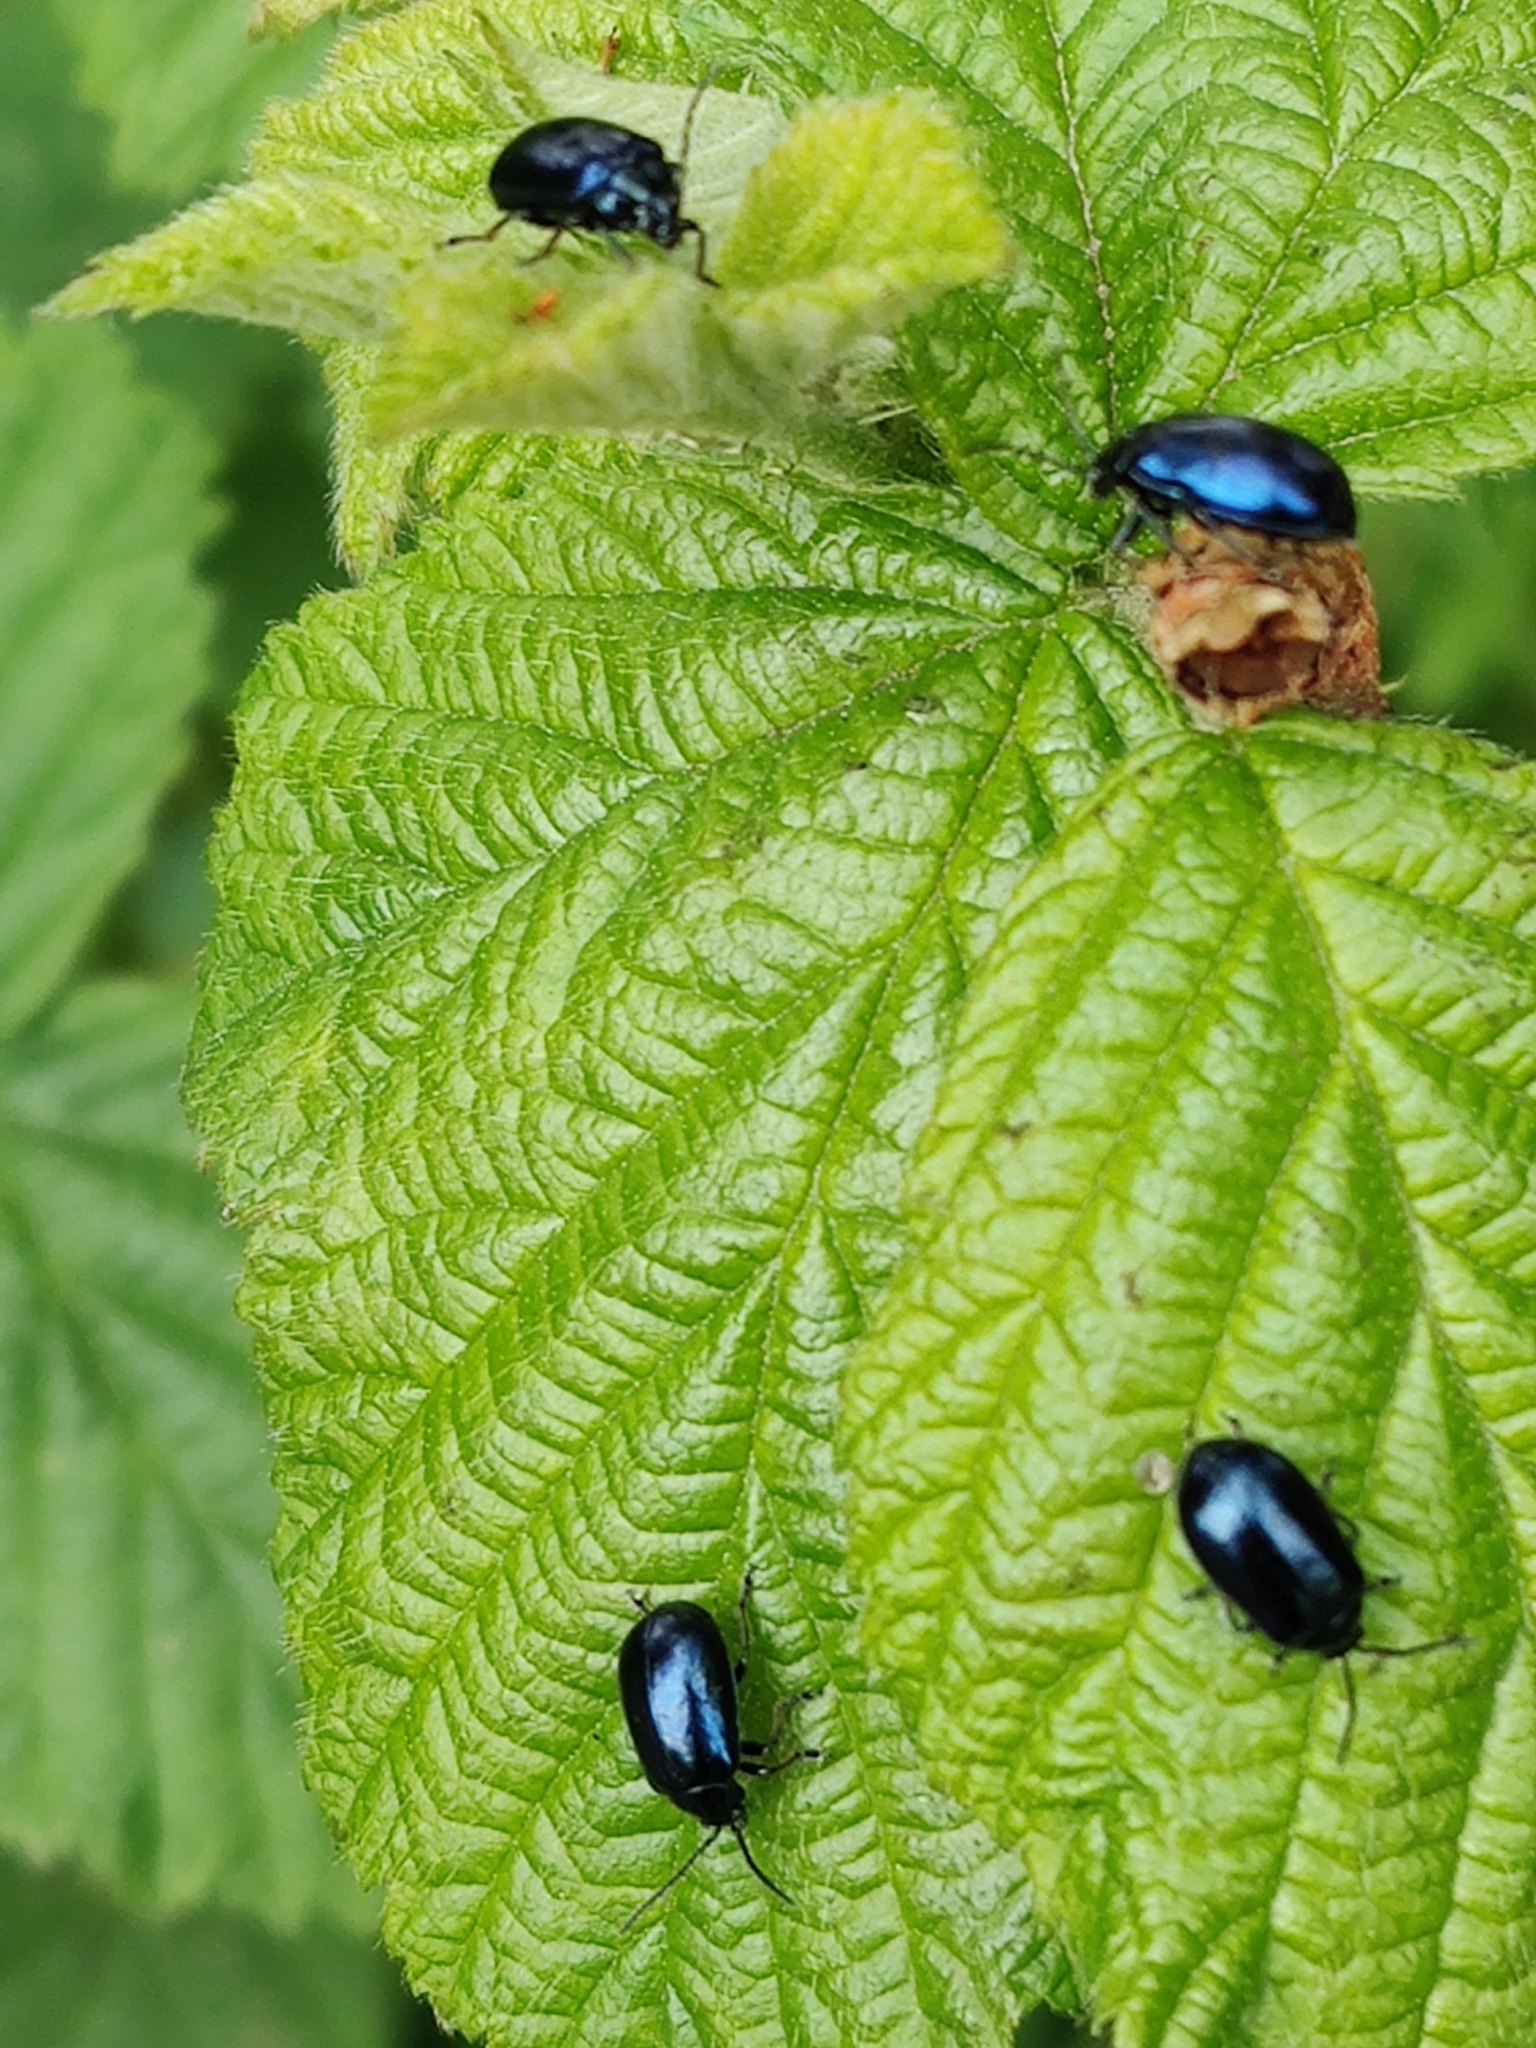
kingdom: Animalia
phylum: Arthropoda
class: Insecta
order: Coleoptera
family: Chrysomelidae
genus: Agelastica
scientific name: Agelastica alni
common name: Alder leaf beetle
